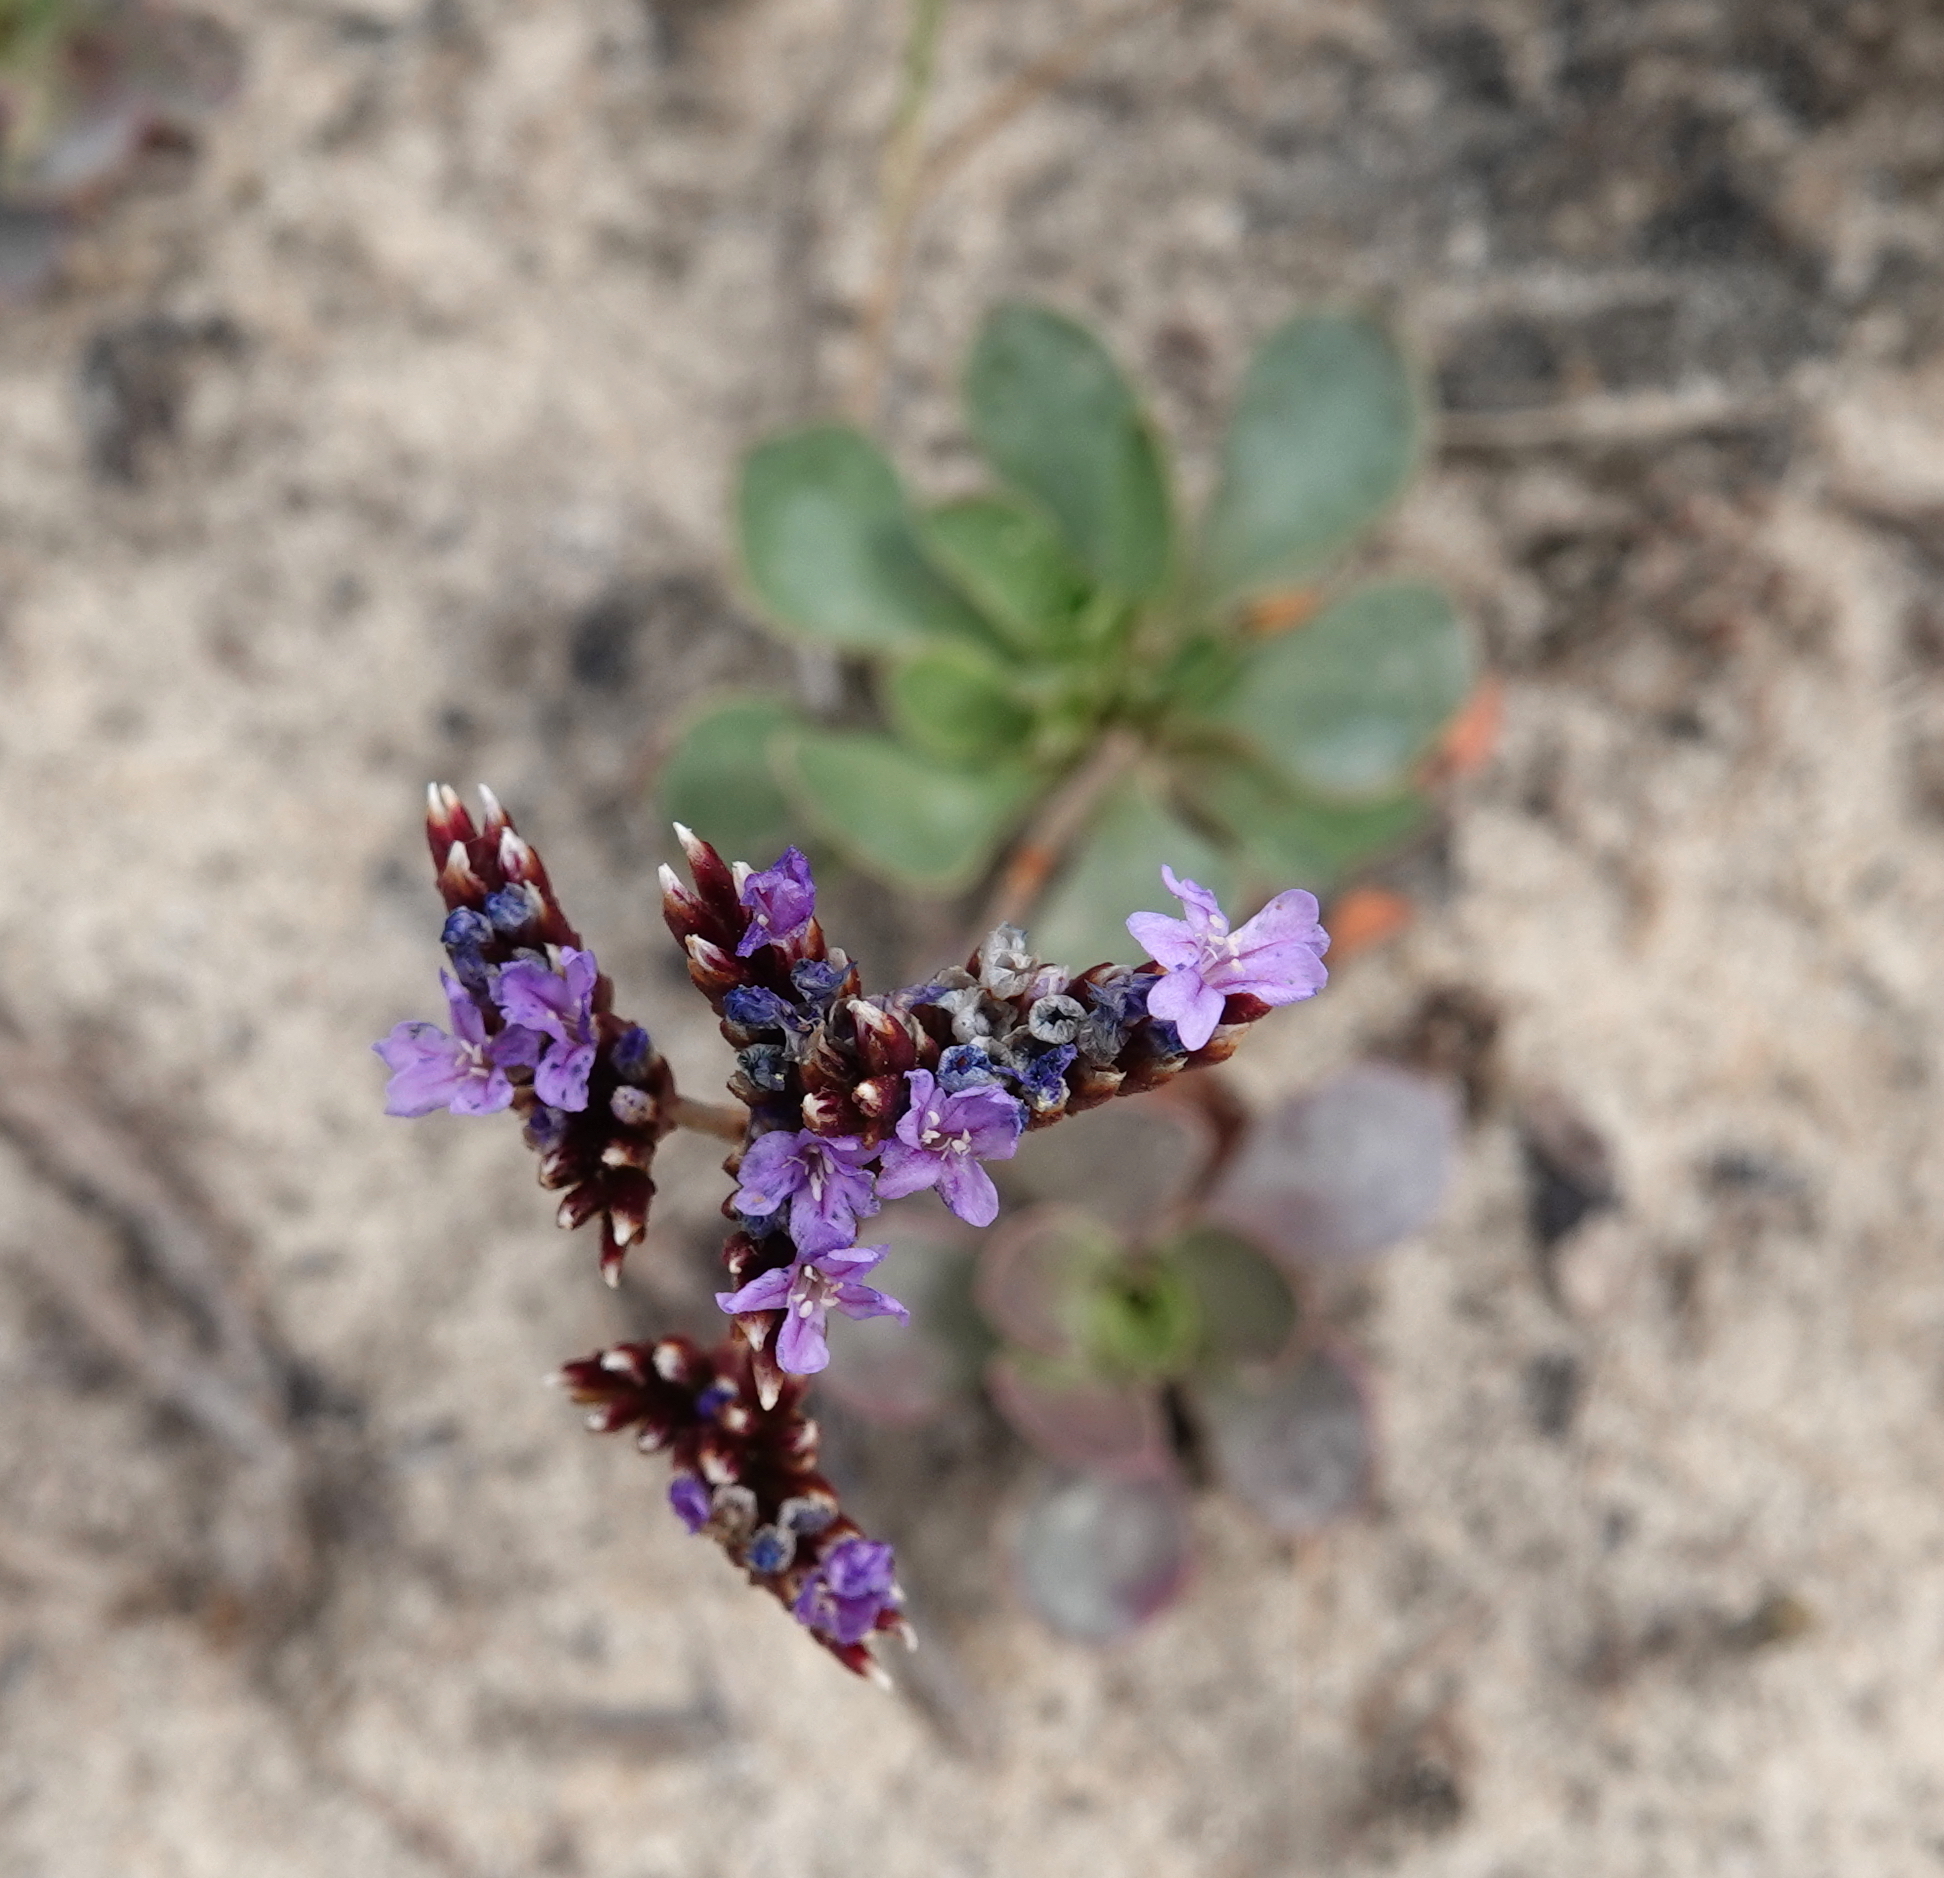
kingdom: Plantae
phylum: Tracheophyta
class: Magnoliopsida
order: Caryophyllales
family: Plumbaginaceae
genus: Limonium
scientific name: Limonium plurisquamatum
